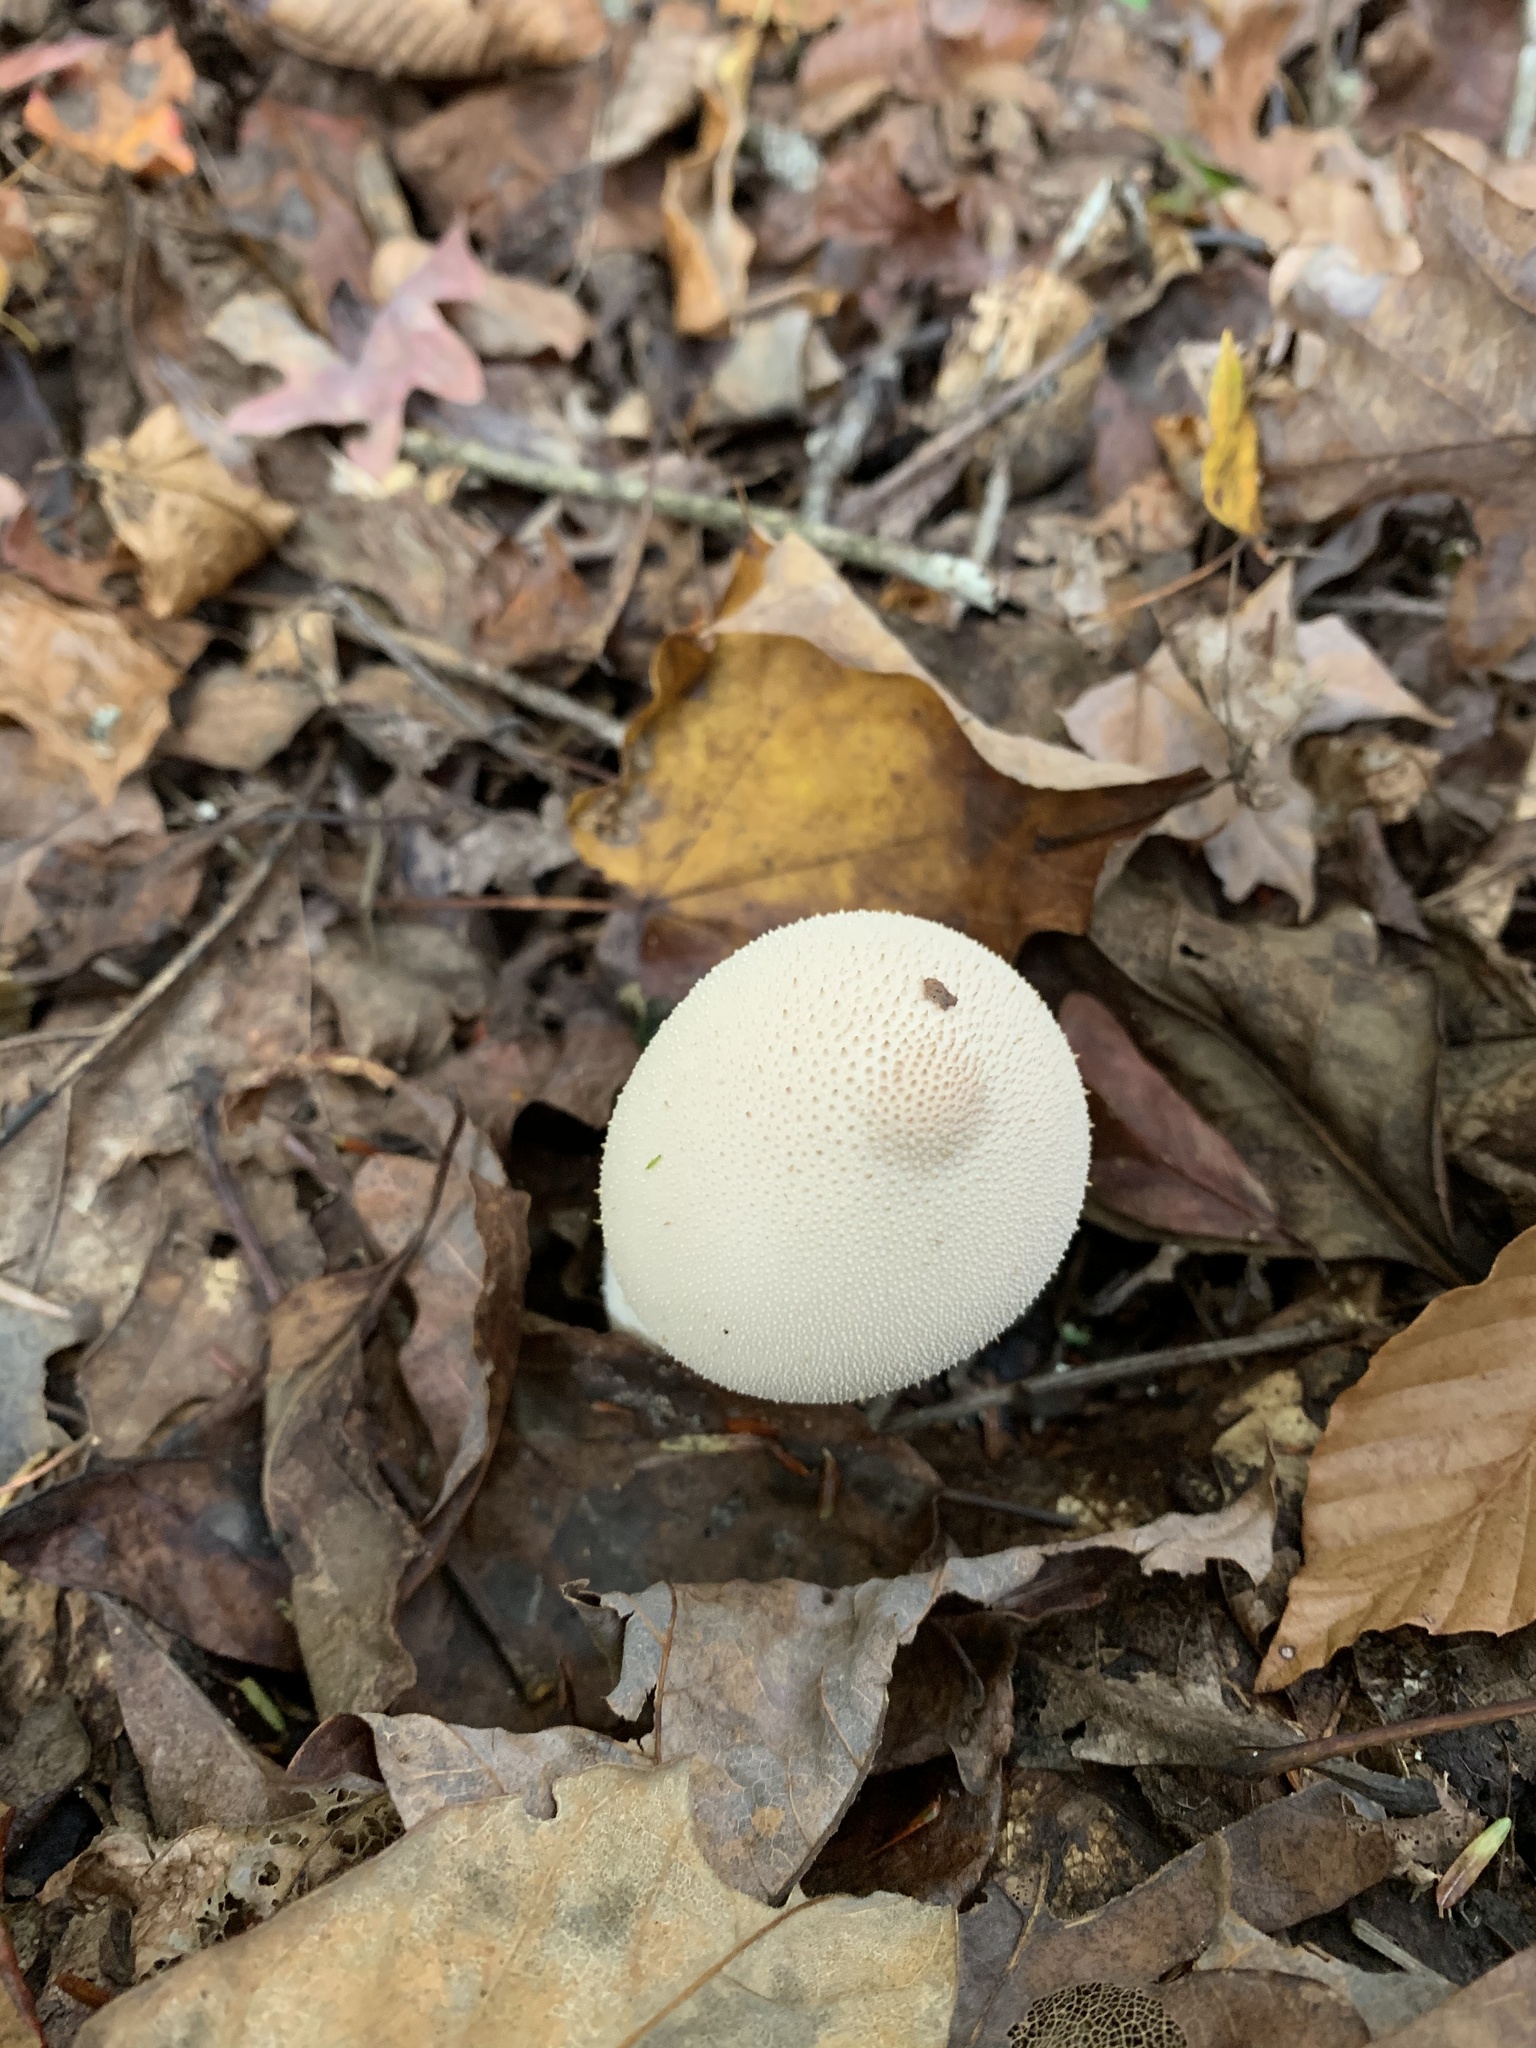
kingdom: Fungi
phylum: Basidiomycota
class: Agaricomycetes
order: Agaricales
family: Lycoperdaceae
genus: Lycoperdon
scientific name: Lycoperdon perlatum
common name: Common puffball
